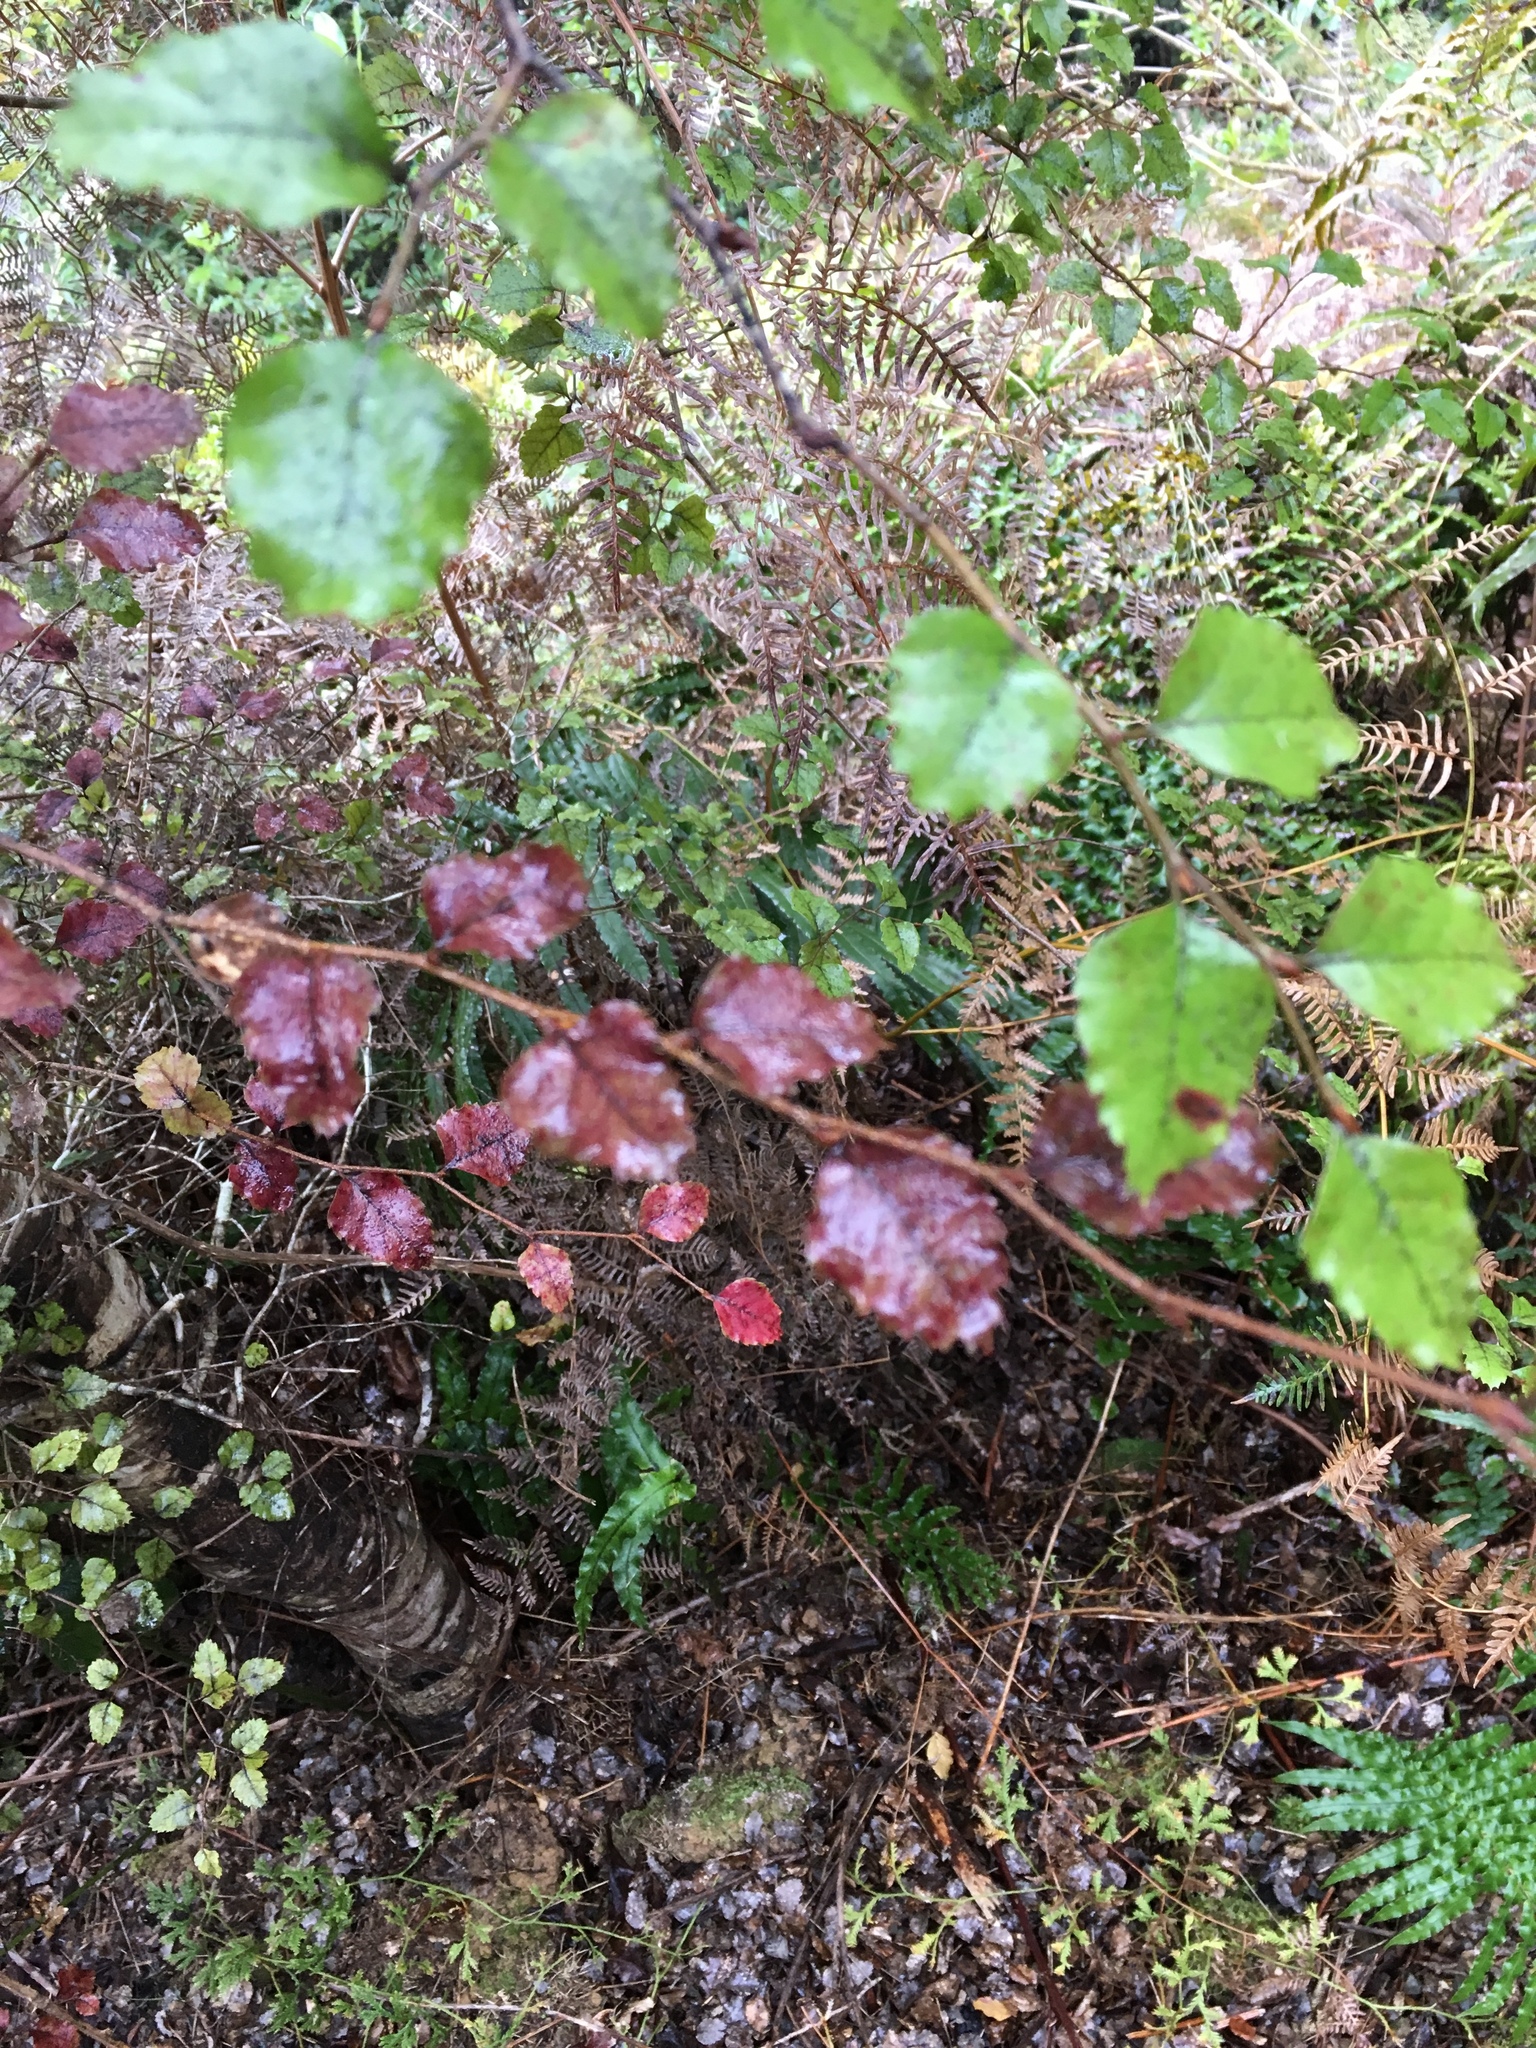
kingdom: Plantae
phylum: Tracheophyta
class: Magnoliopsida
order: Fagales
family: Nothofagaceae
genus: Nothofagus
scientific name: Nothofagus fusca
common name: Red beech
